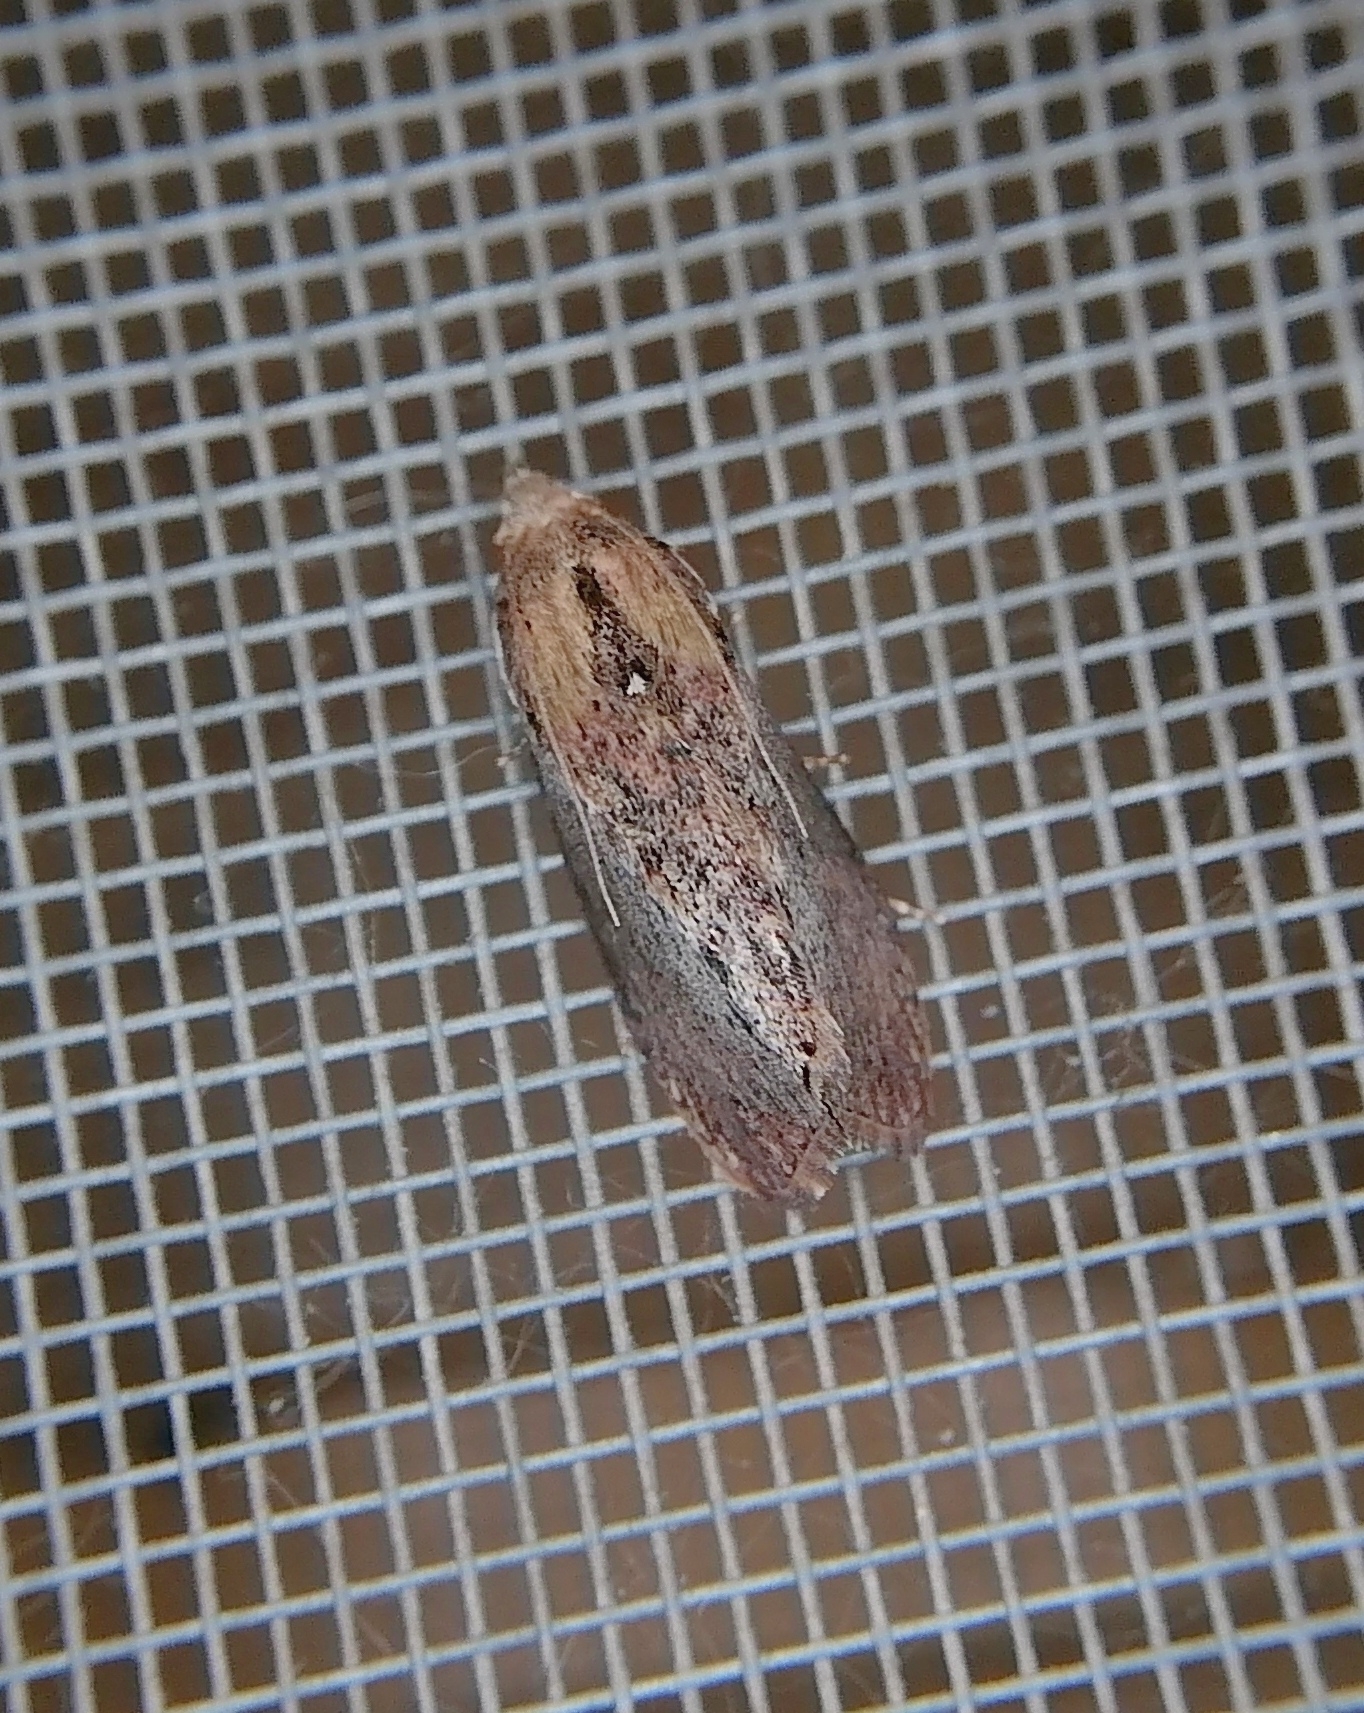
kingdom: Animalia
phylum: Arthropoda
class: Insecta
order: Lepidoptera
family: Pyralidae
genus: Galleria
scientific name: Galleria mellonella
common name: Greater wax moth
